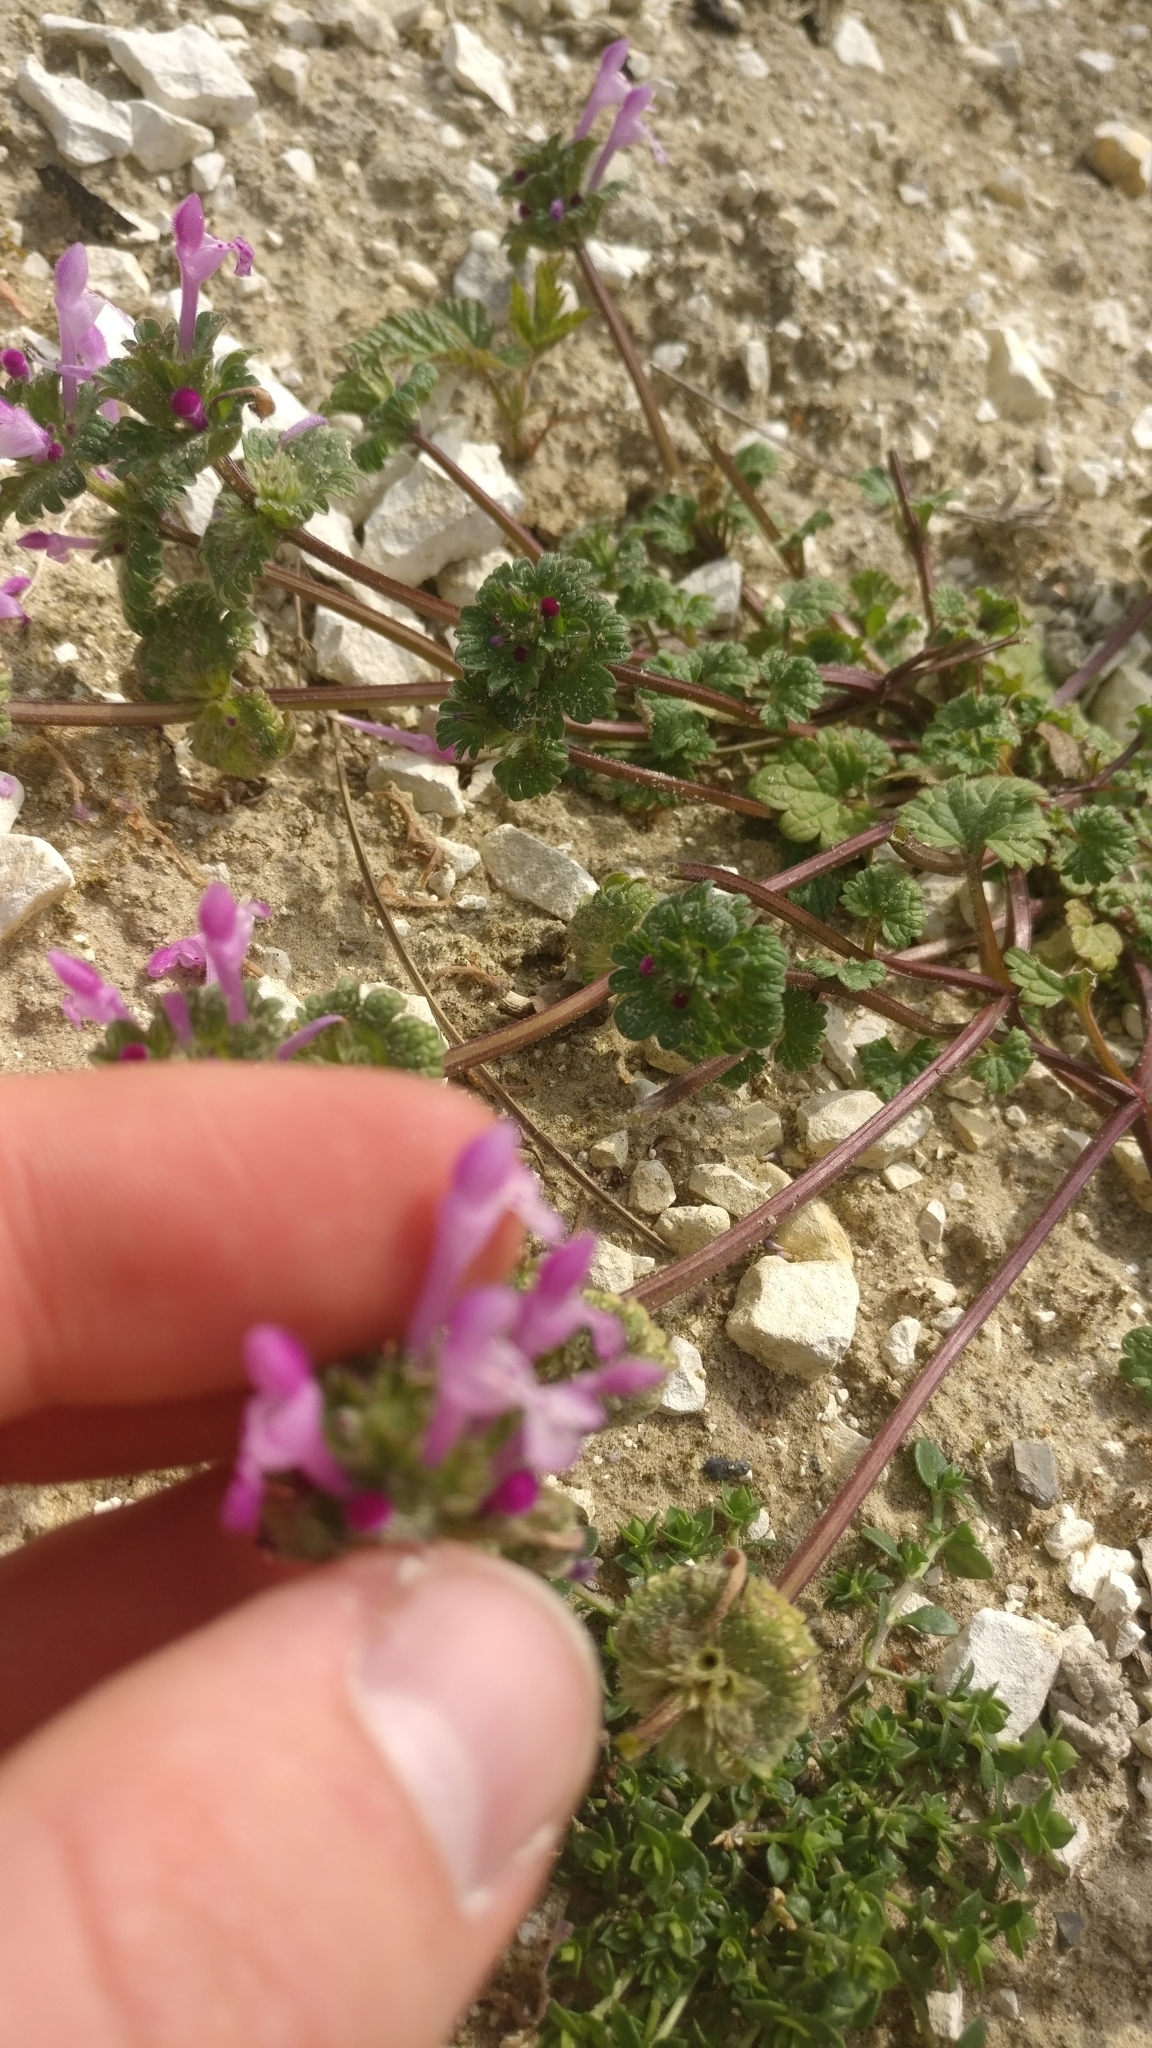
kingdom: Plantae
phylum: Tracheophyta
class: Magnoliopsida
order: Lamiales
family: Lamiaceae
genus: Lamium
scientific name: Lamium amplexicaule
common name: Henbit dead-nettle
